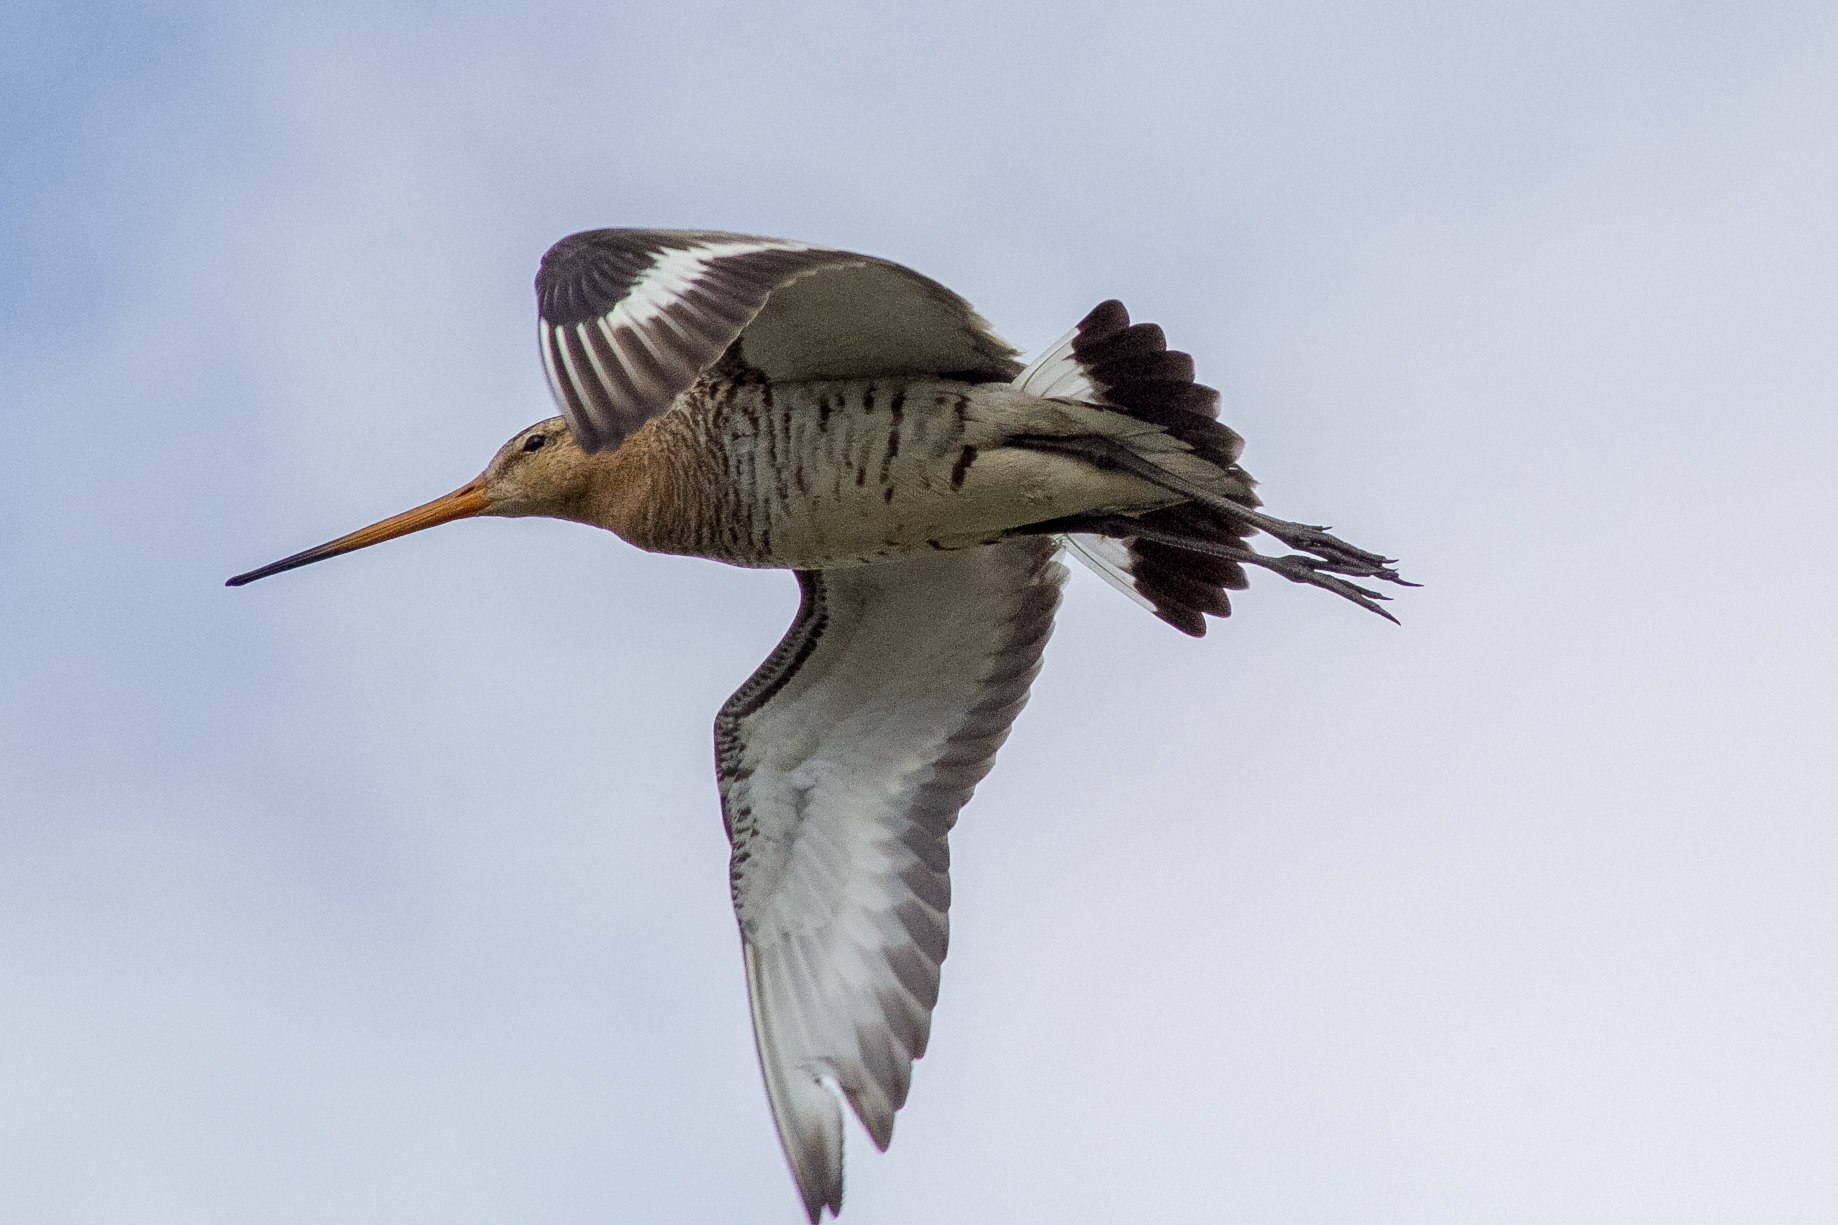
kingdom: Animalia
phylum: Chordata
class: Aves
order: Charadriiformes
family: Scolopacidae
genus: Limosa
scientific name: Limosa limosa
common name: Black-tailed godwit
